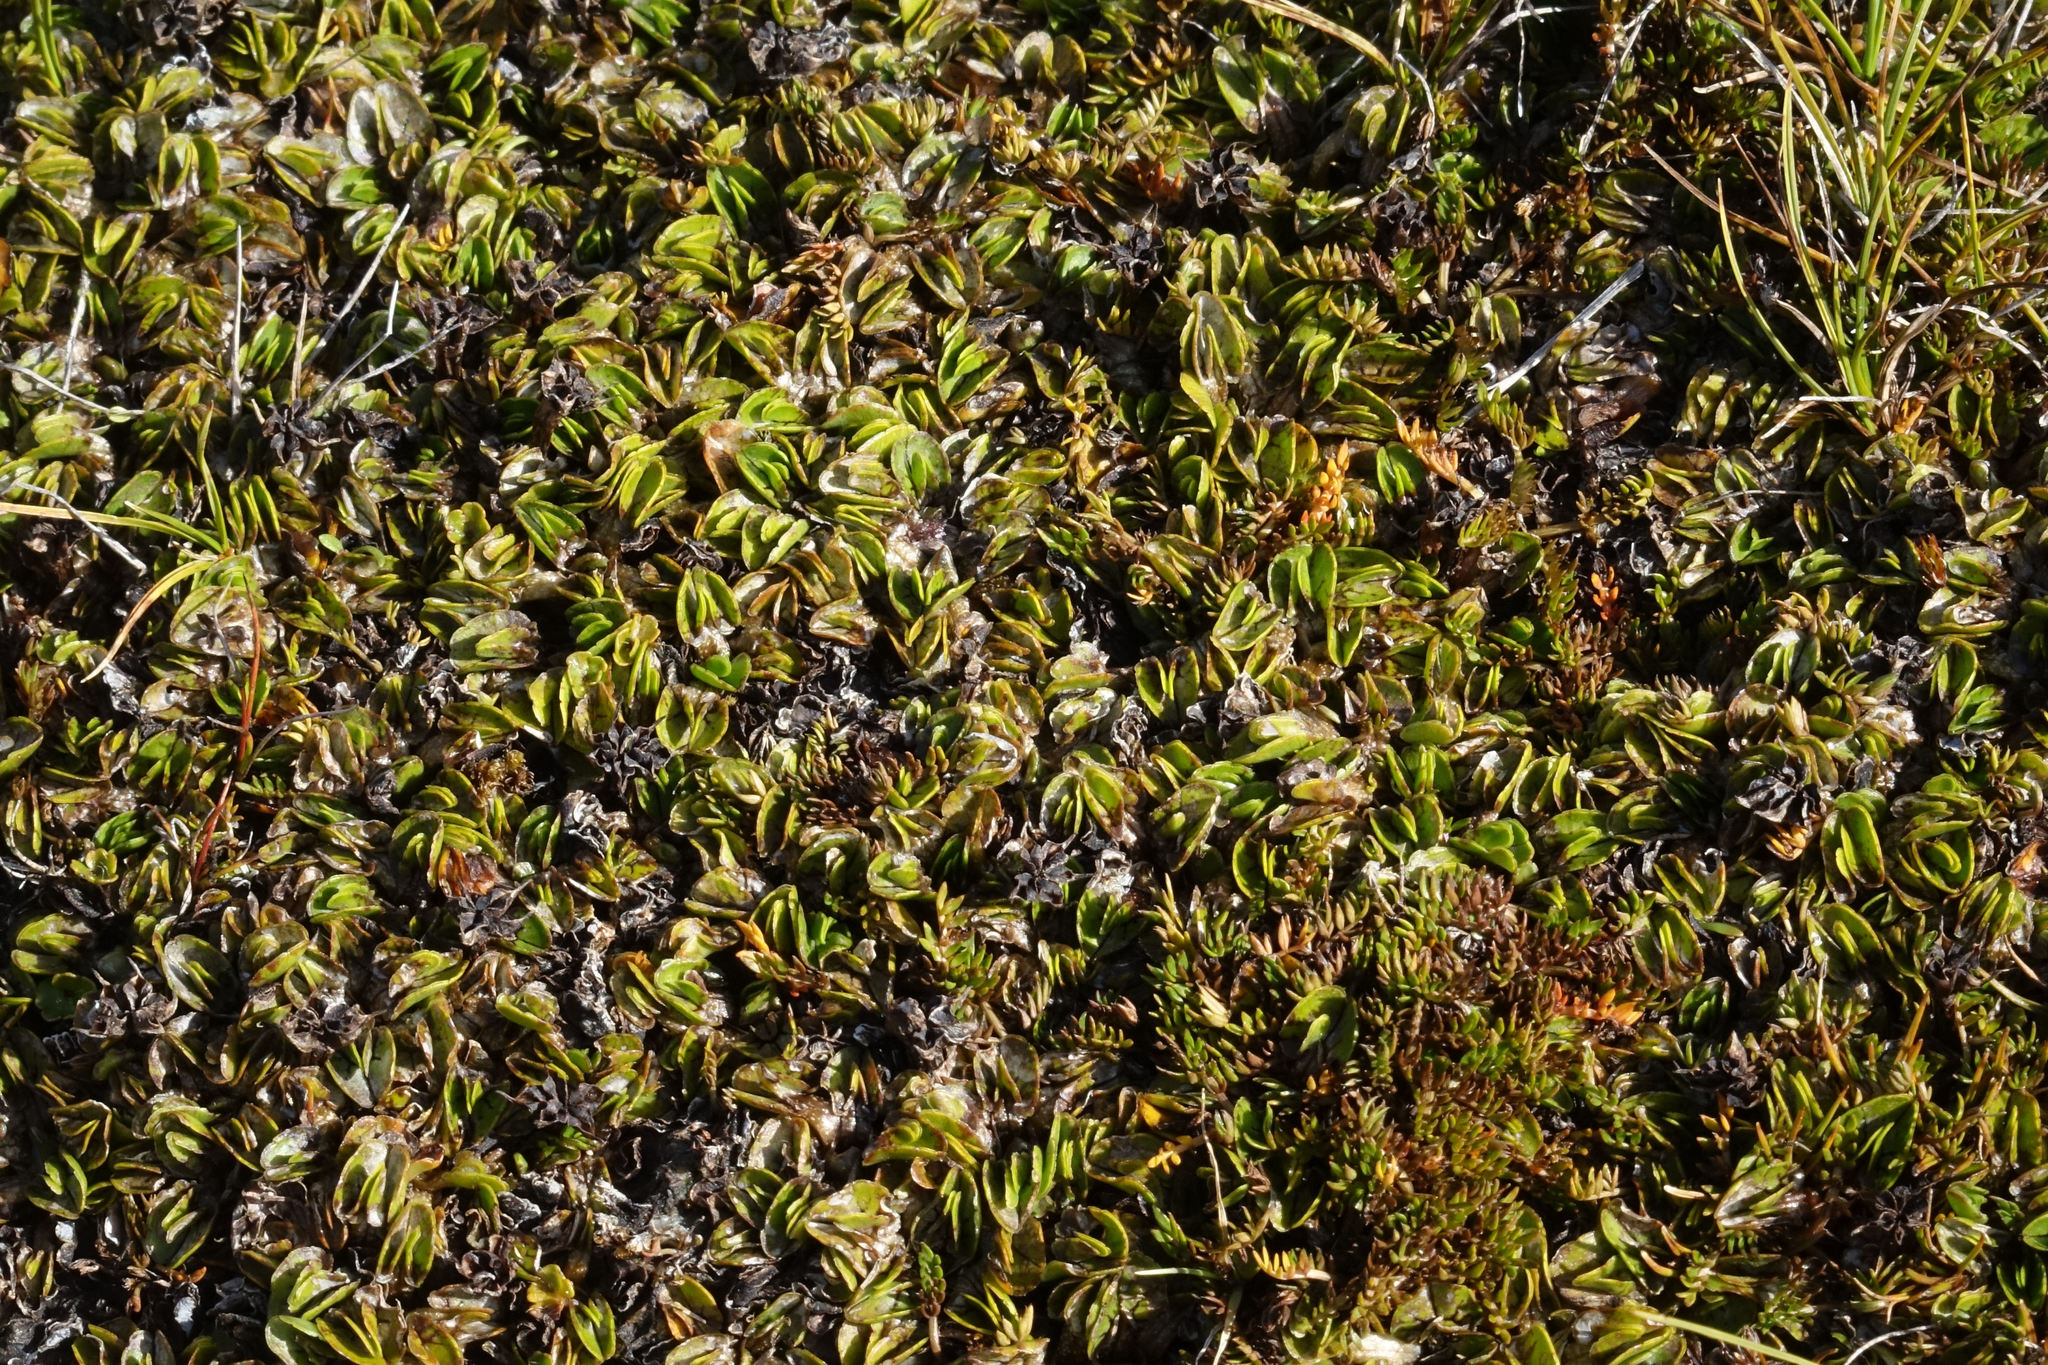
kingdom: Plantae
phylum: Tracheophyta
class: Magnoliopsida
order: Ranunculales
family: Ranunculaceae
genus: Caltha
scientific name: Caltha obtusa
